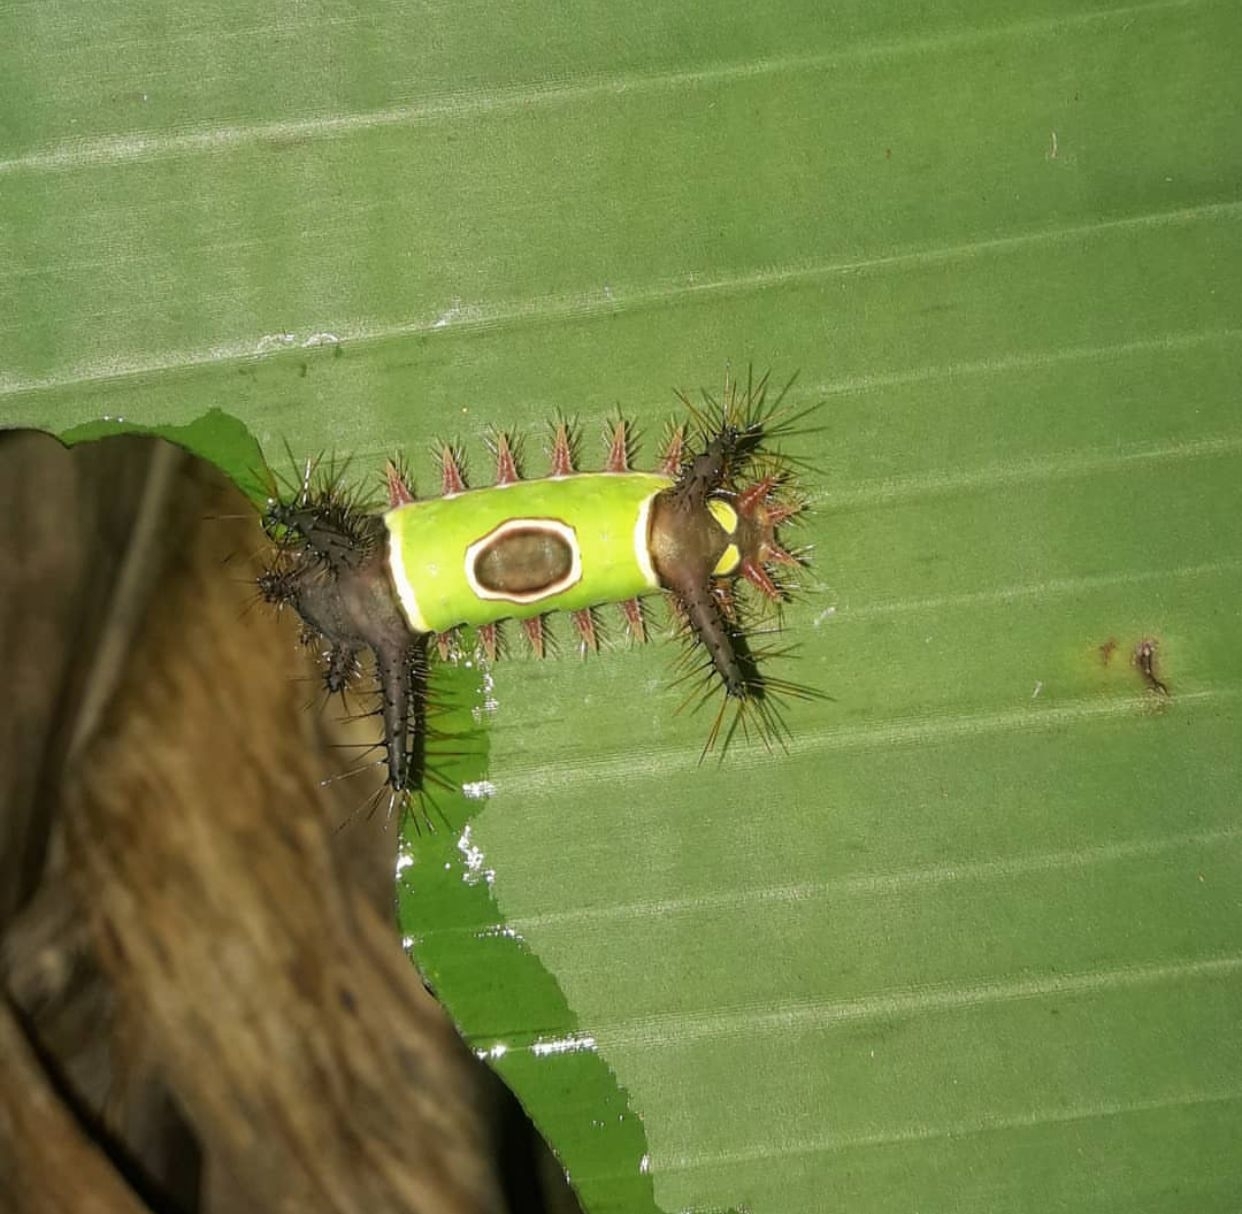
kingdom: Animalia
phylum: Arthropoda
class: Insecta
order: Lepidoptera
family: Limacodidae
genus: Acharia
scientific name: Acharia hyperoche
